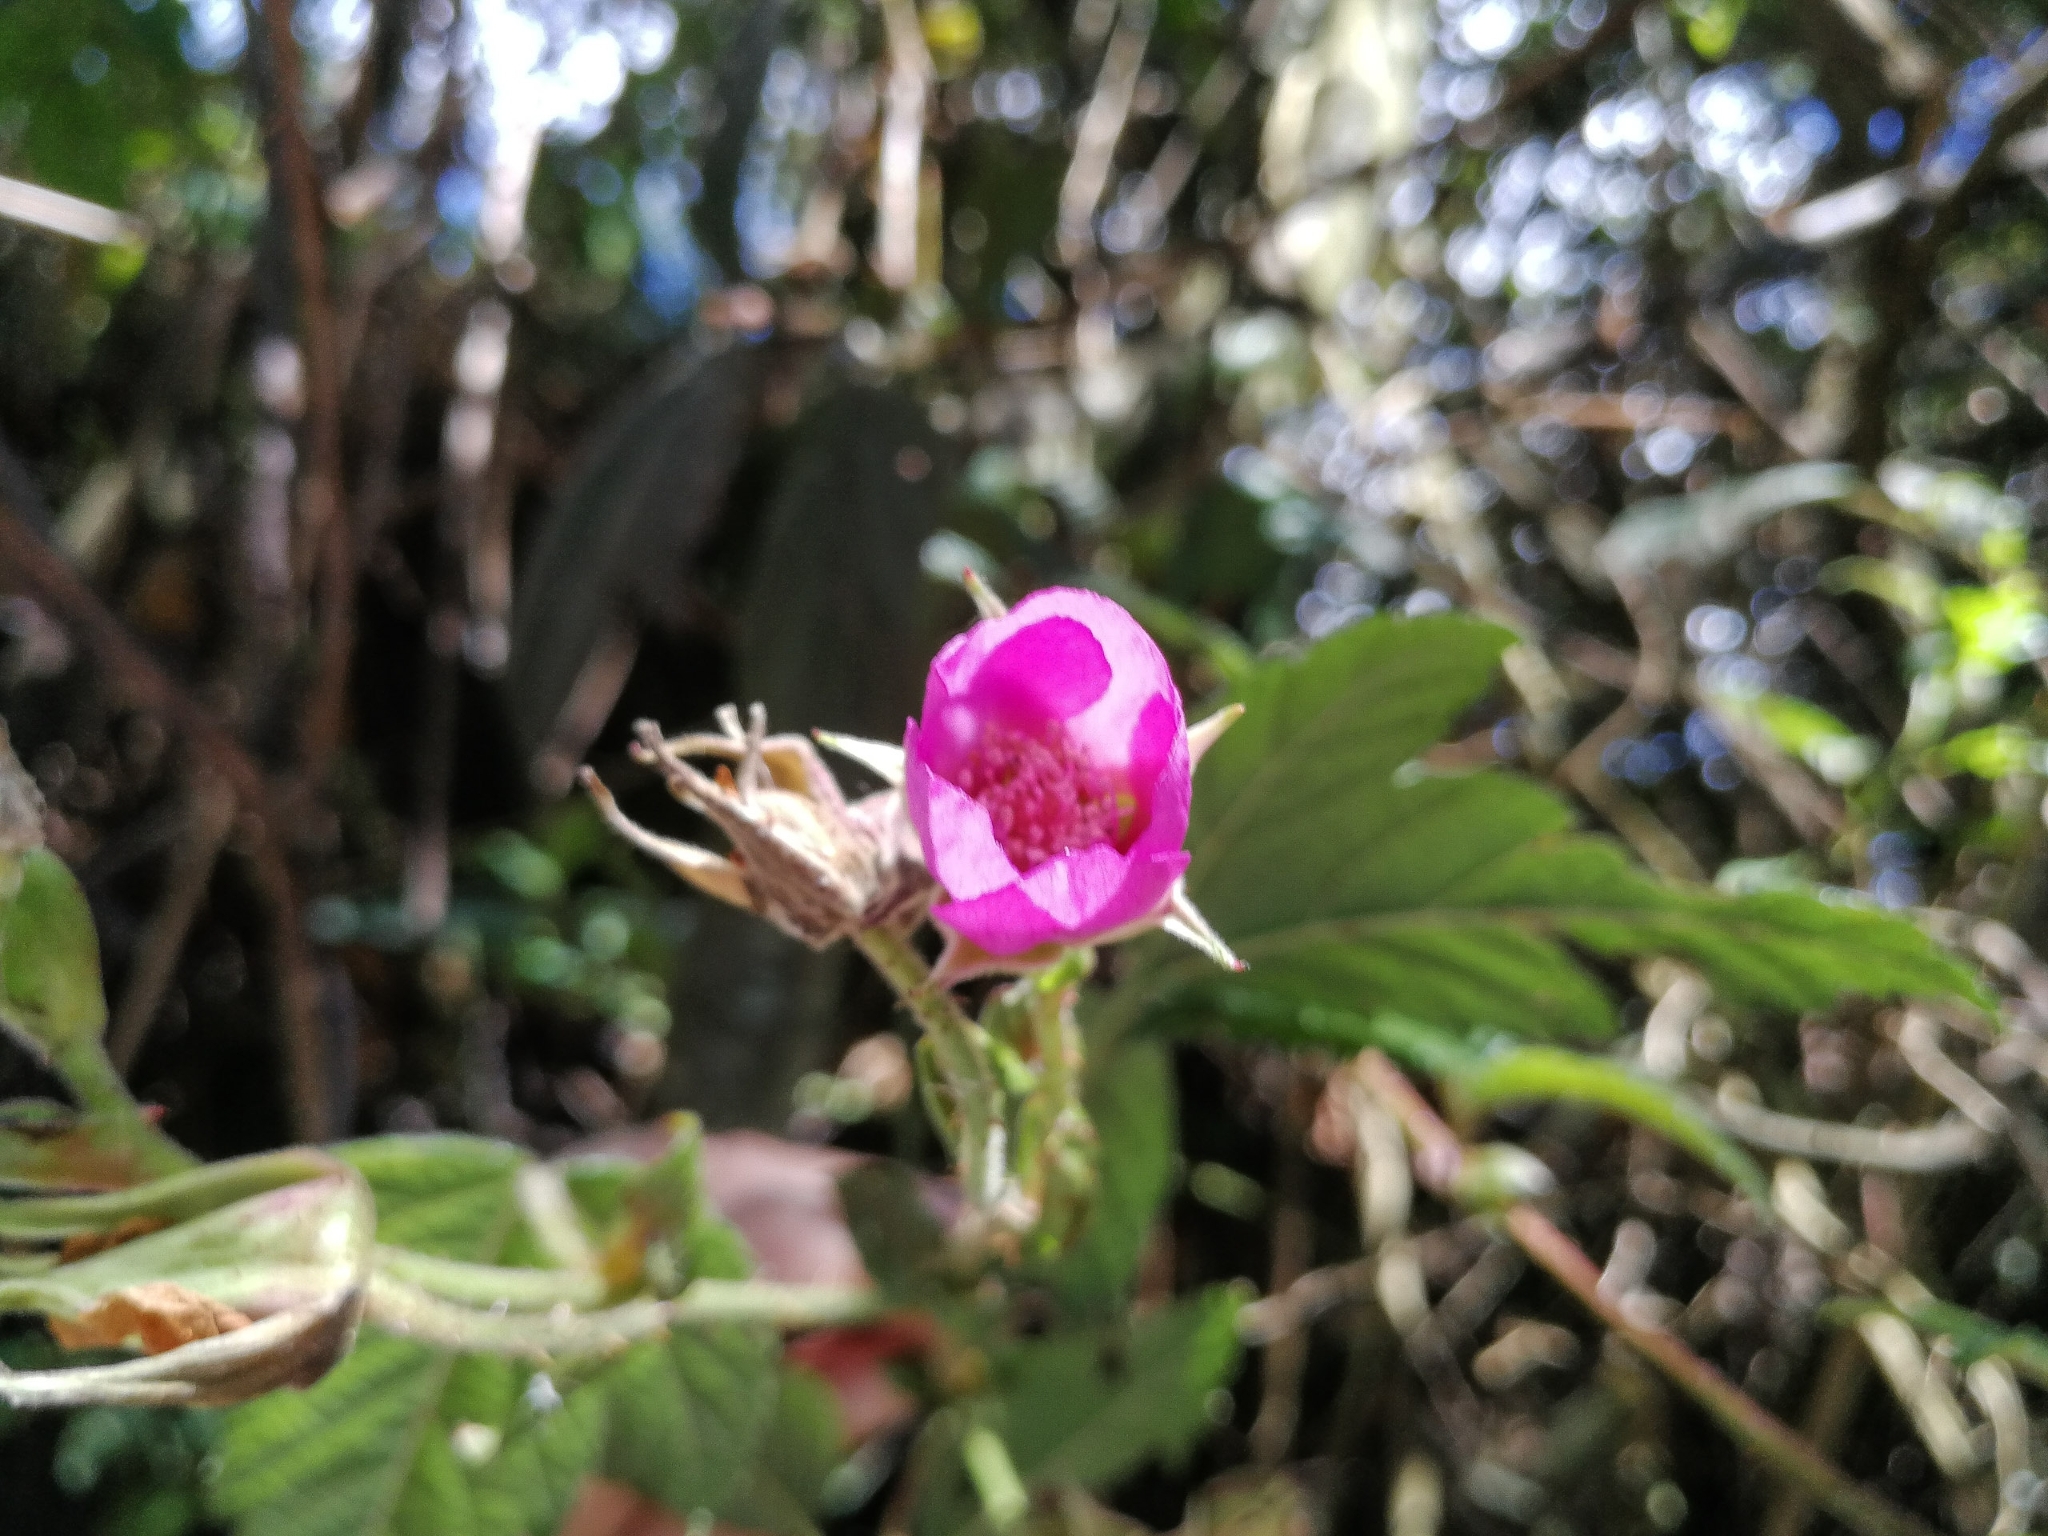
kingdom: Plantae
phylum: Tracheophyta
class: Magnoliopsida
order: Rosales
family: Rosaceae
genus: Rubus
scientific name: Rubus roseus
